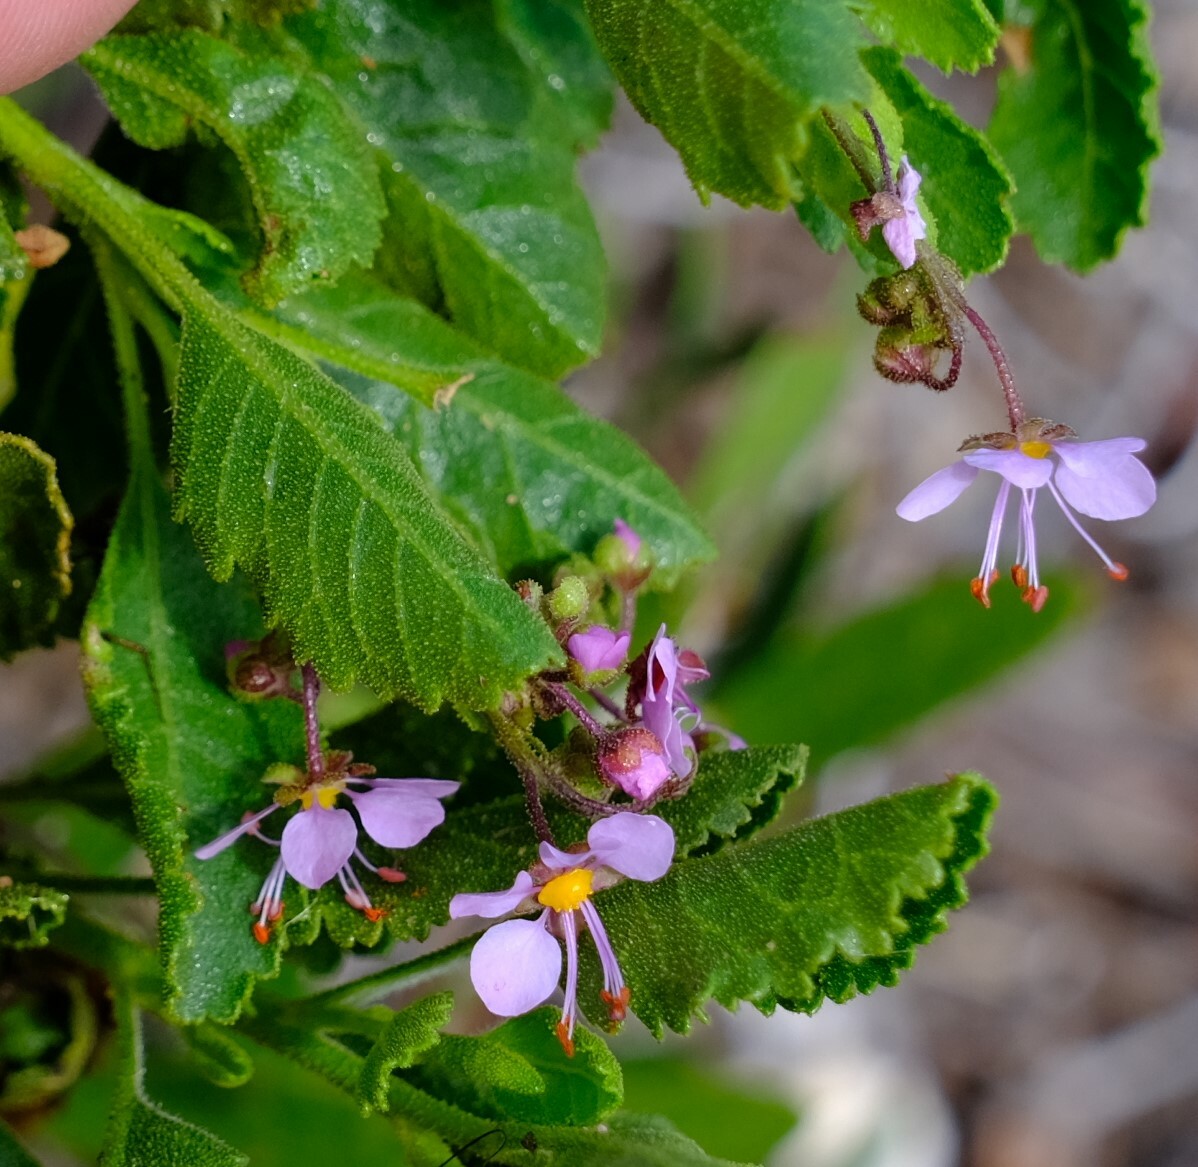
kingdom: Plantae
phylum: Tracheophyta
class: Magnoliopsida
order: Sapindales
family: Sapindaceae
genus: Diplopeltis
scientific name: Diplopeltis petiolaris
